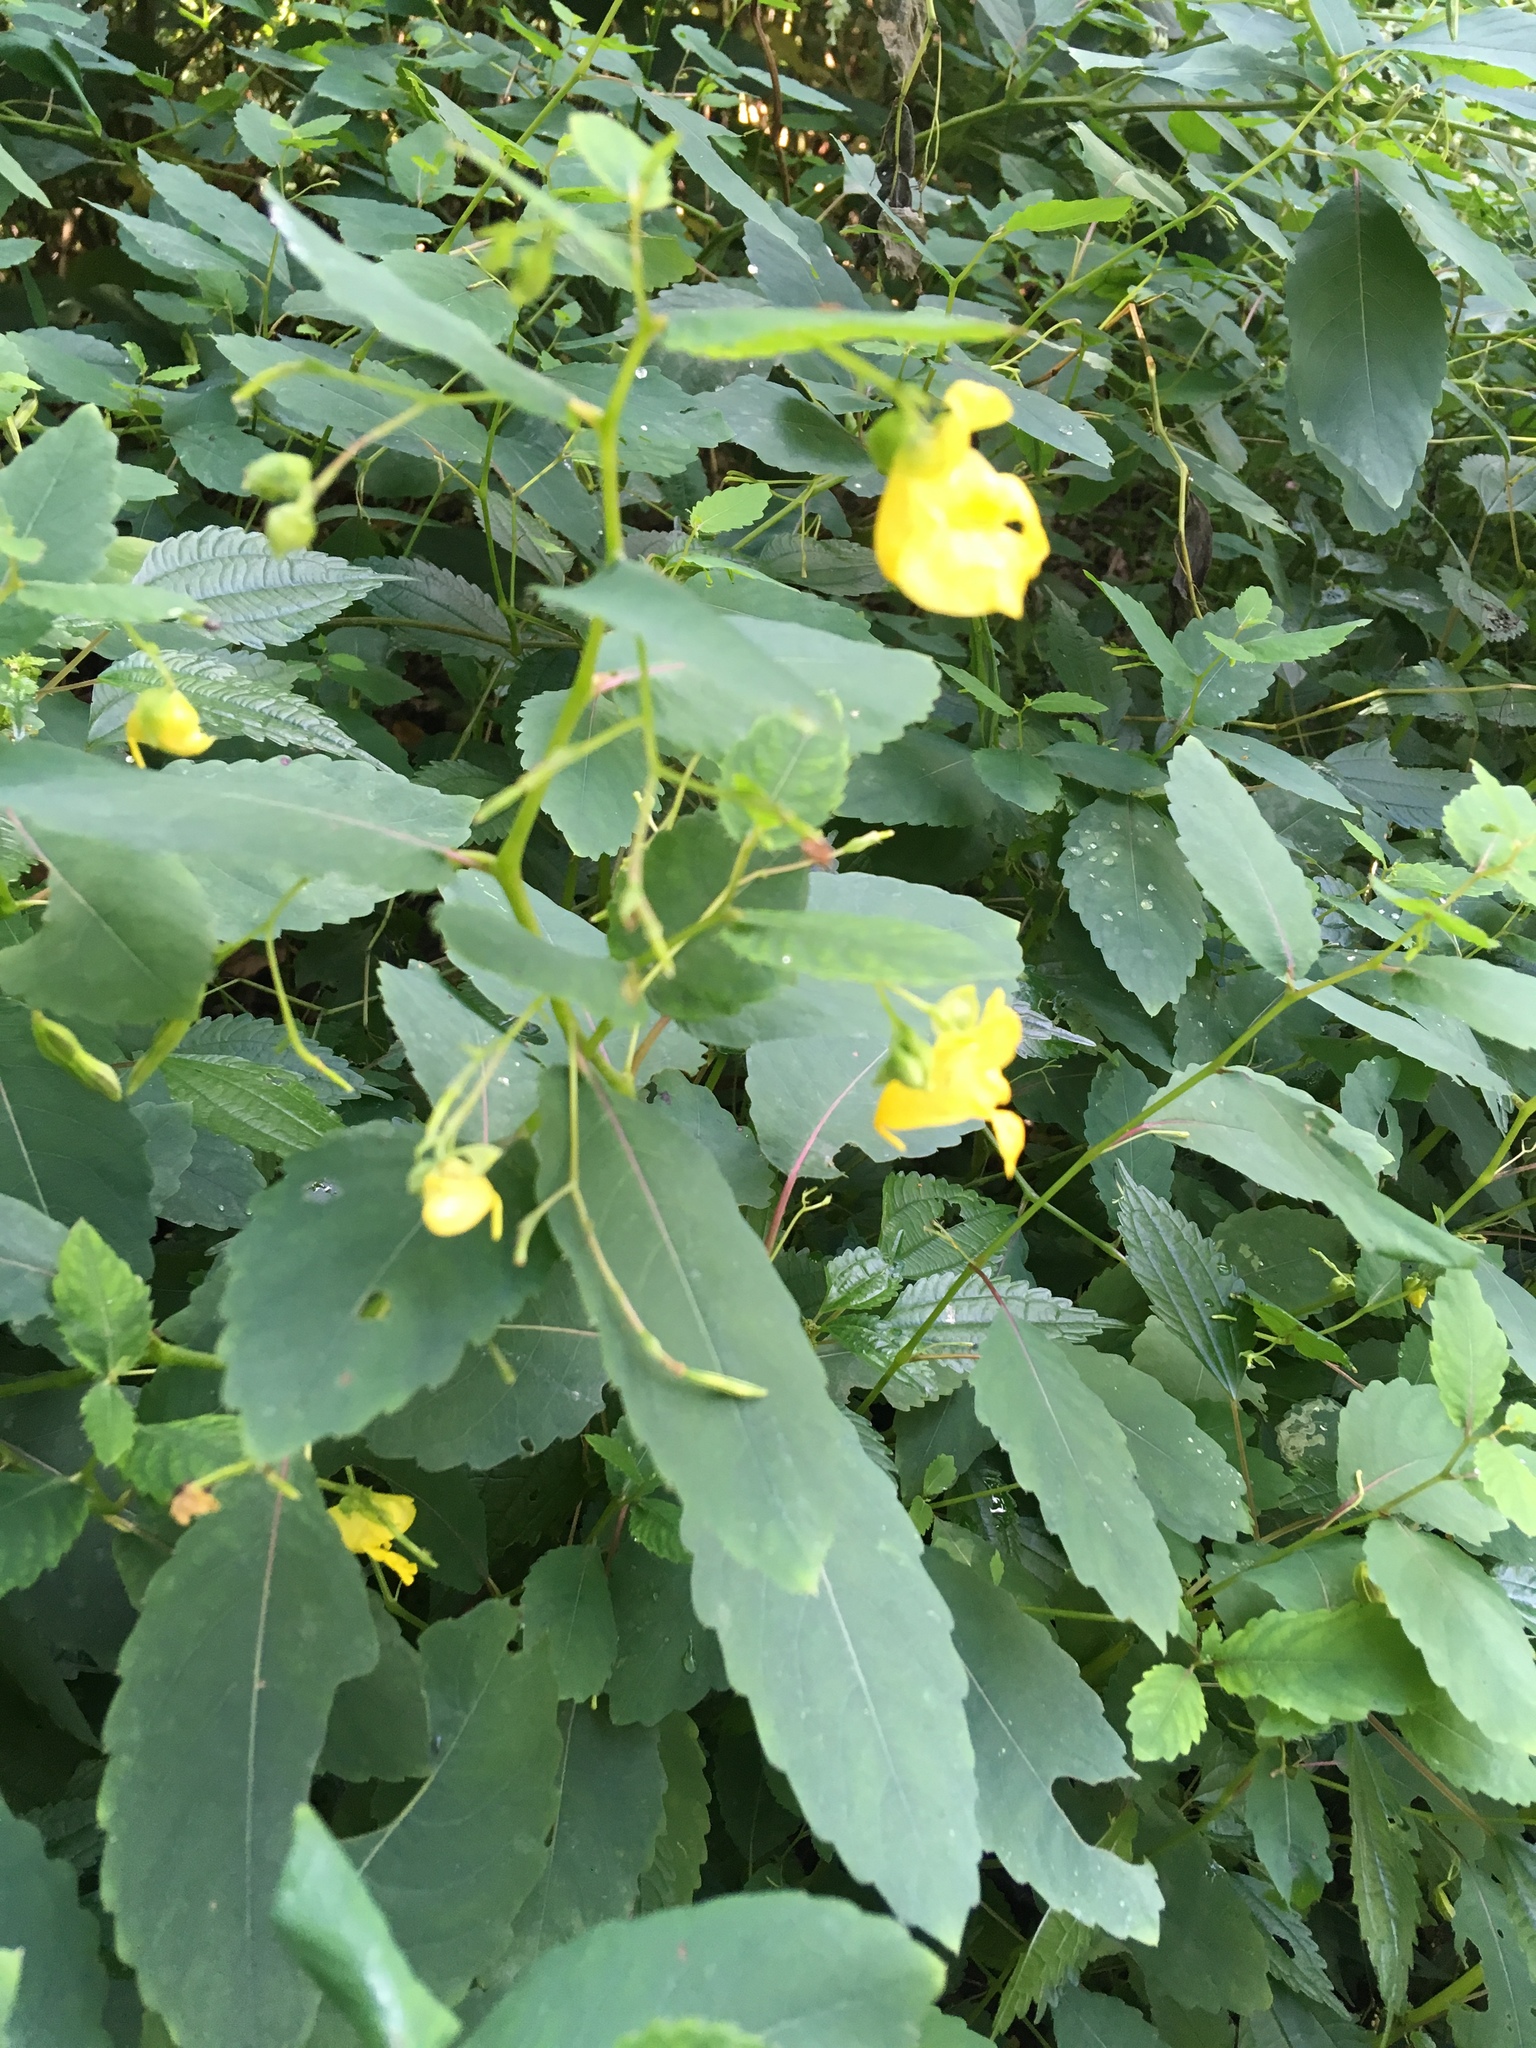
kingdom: Plantae
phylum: Tracheophyta
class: Magnoliopsida
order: Ericales
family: Balsaminaceae
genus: Impatiens
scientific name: Impatiens pallida
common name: Pale snapweed
